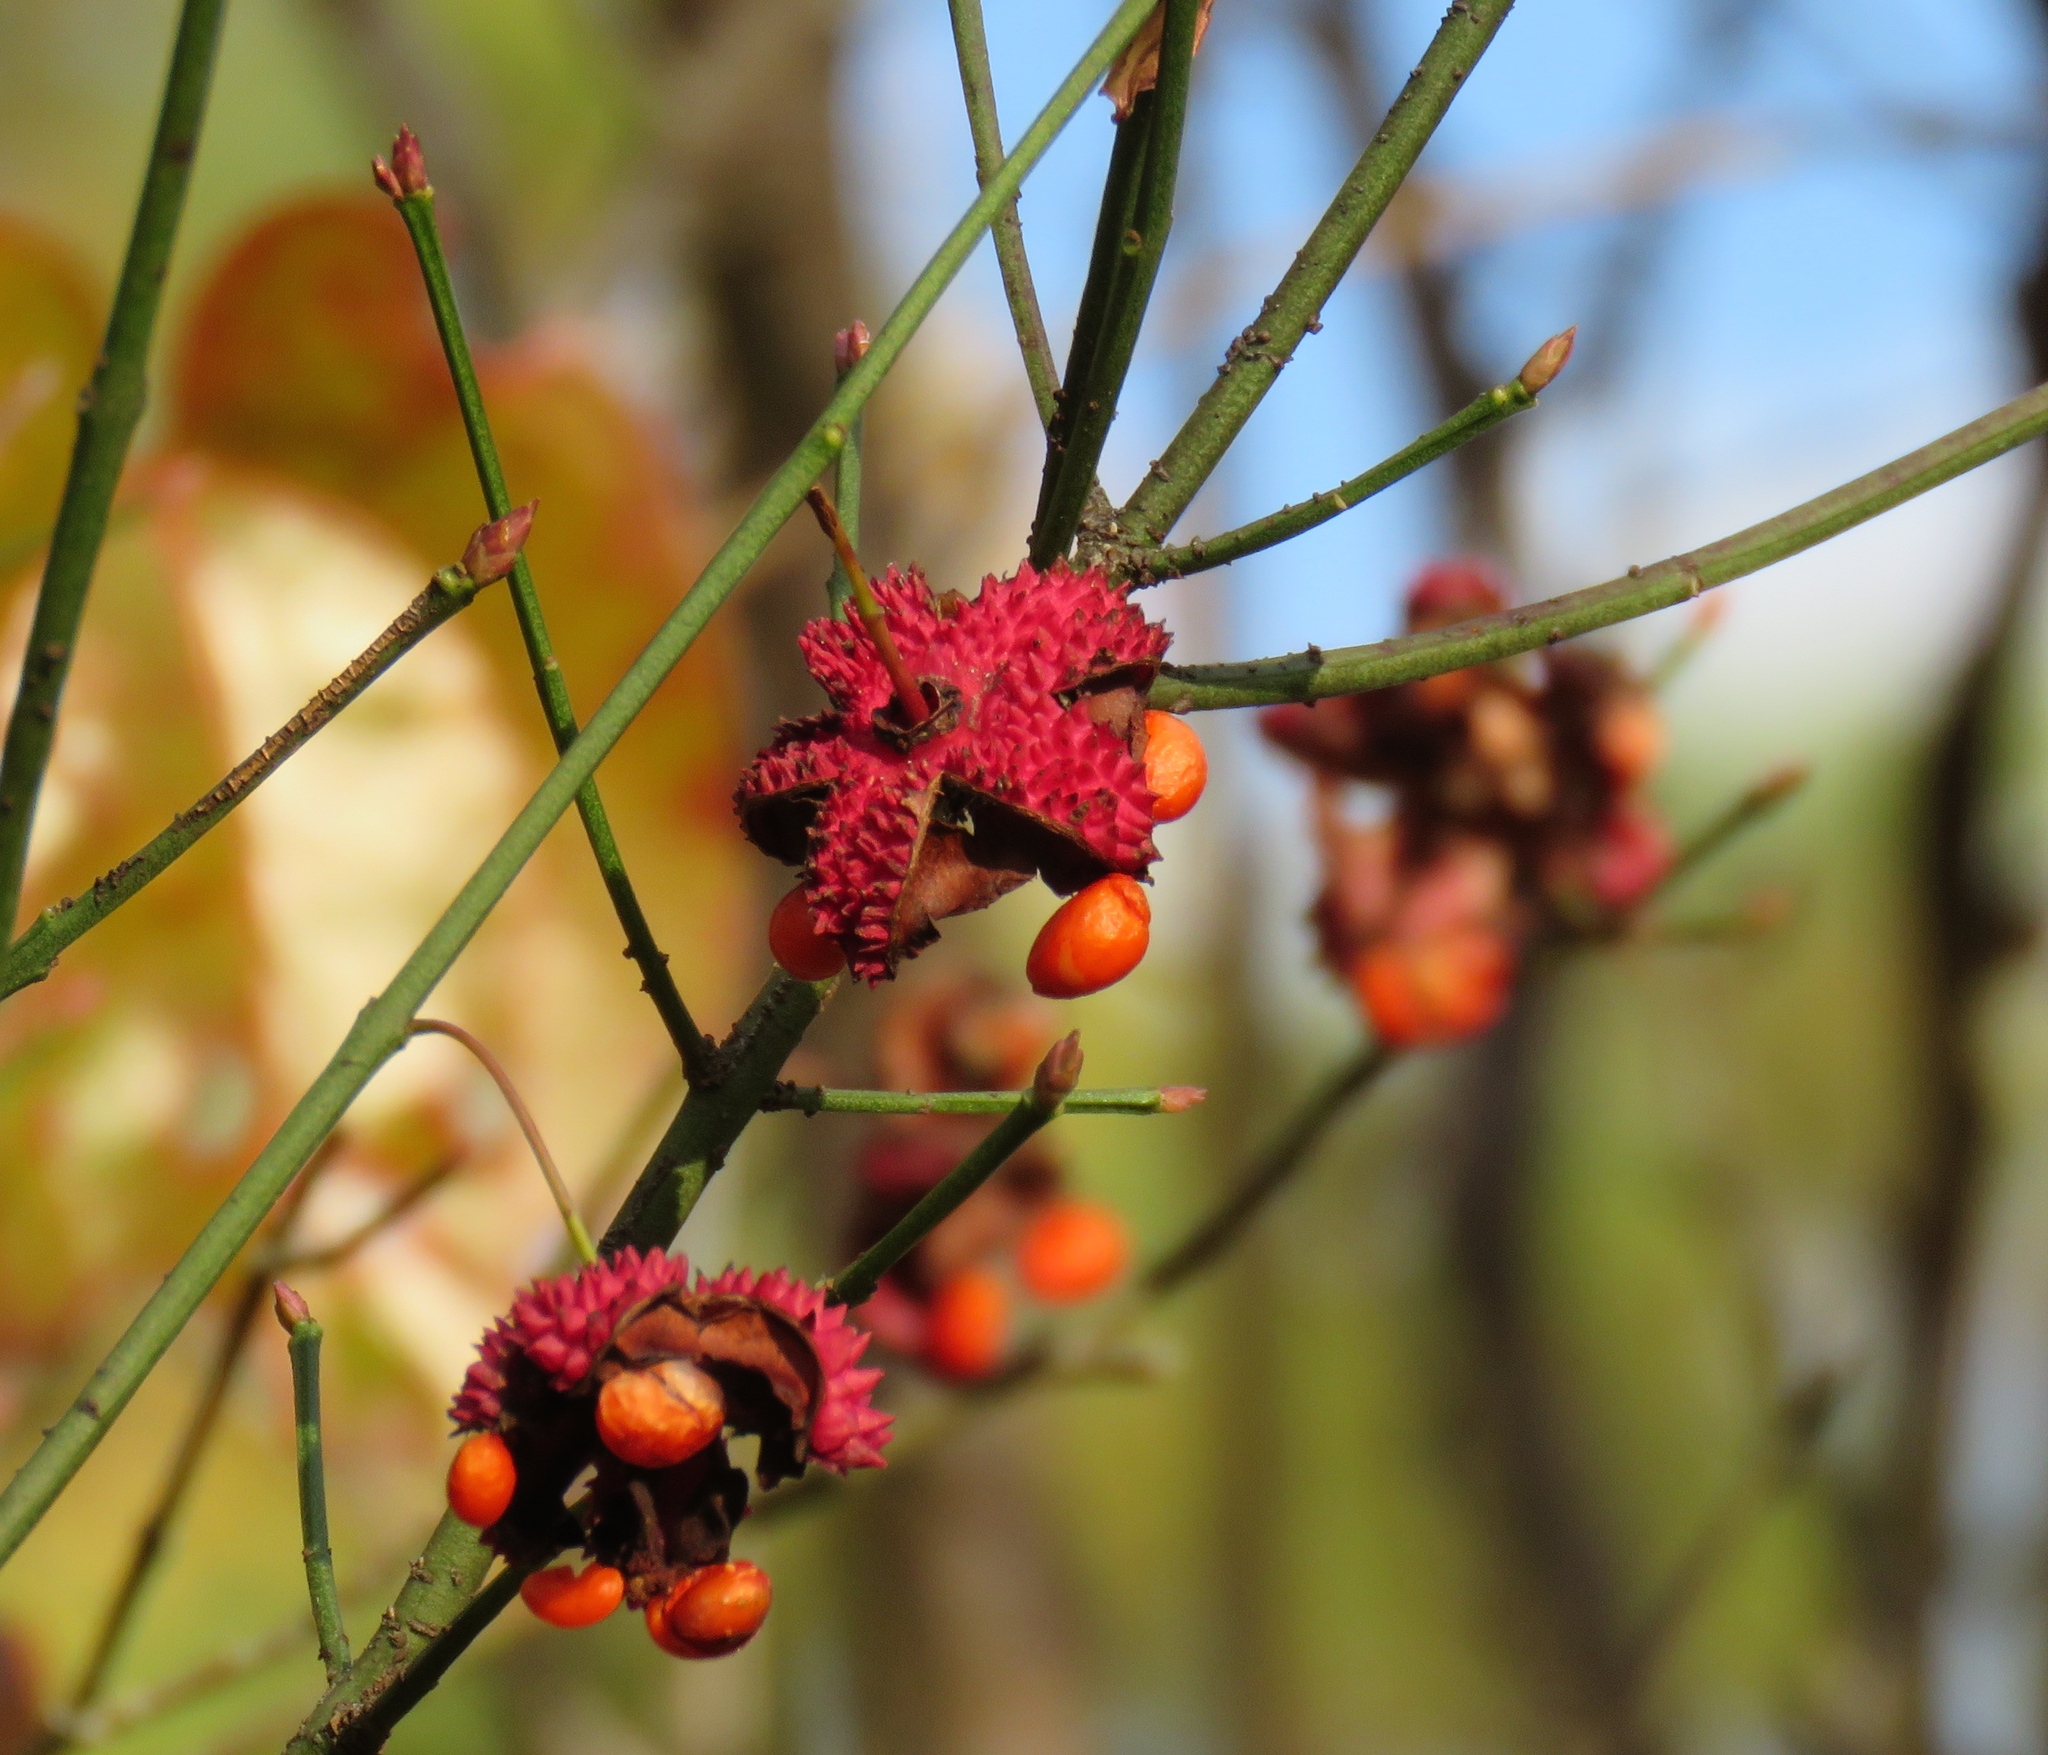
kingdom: Plantae
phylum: Tracheophyta
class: Magnoliopsida
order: Celastrales
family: Celastraceae
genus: Euonymus
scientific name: Euonymus americanus
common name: Bursting-heart
